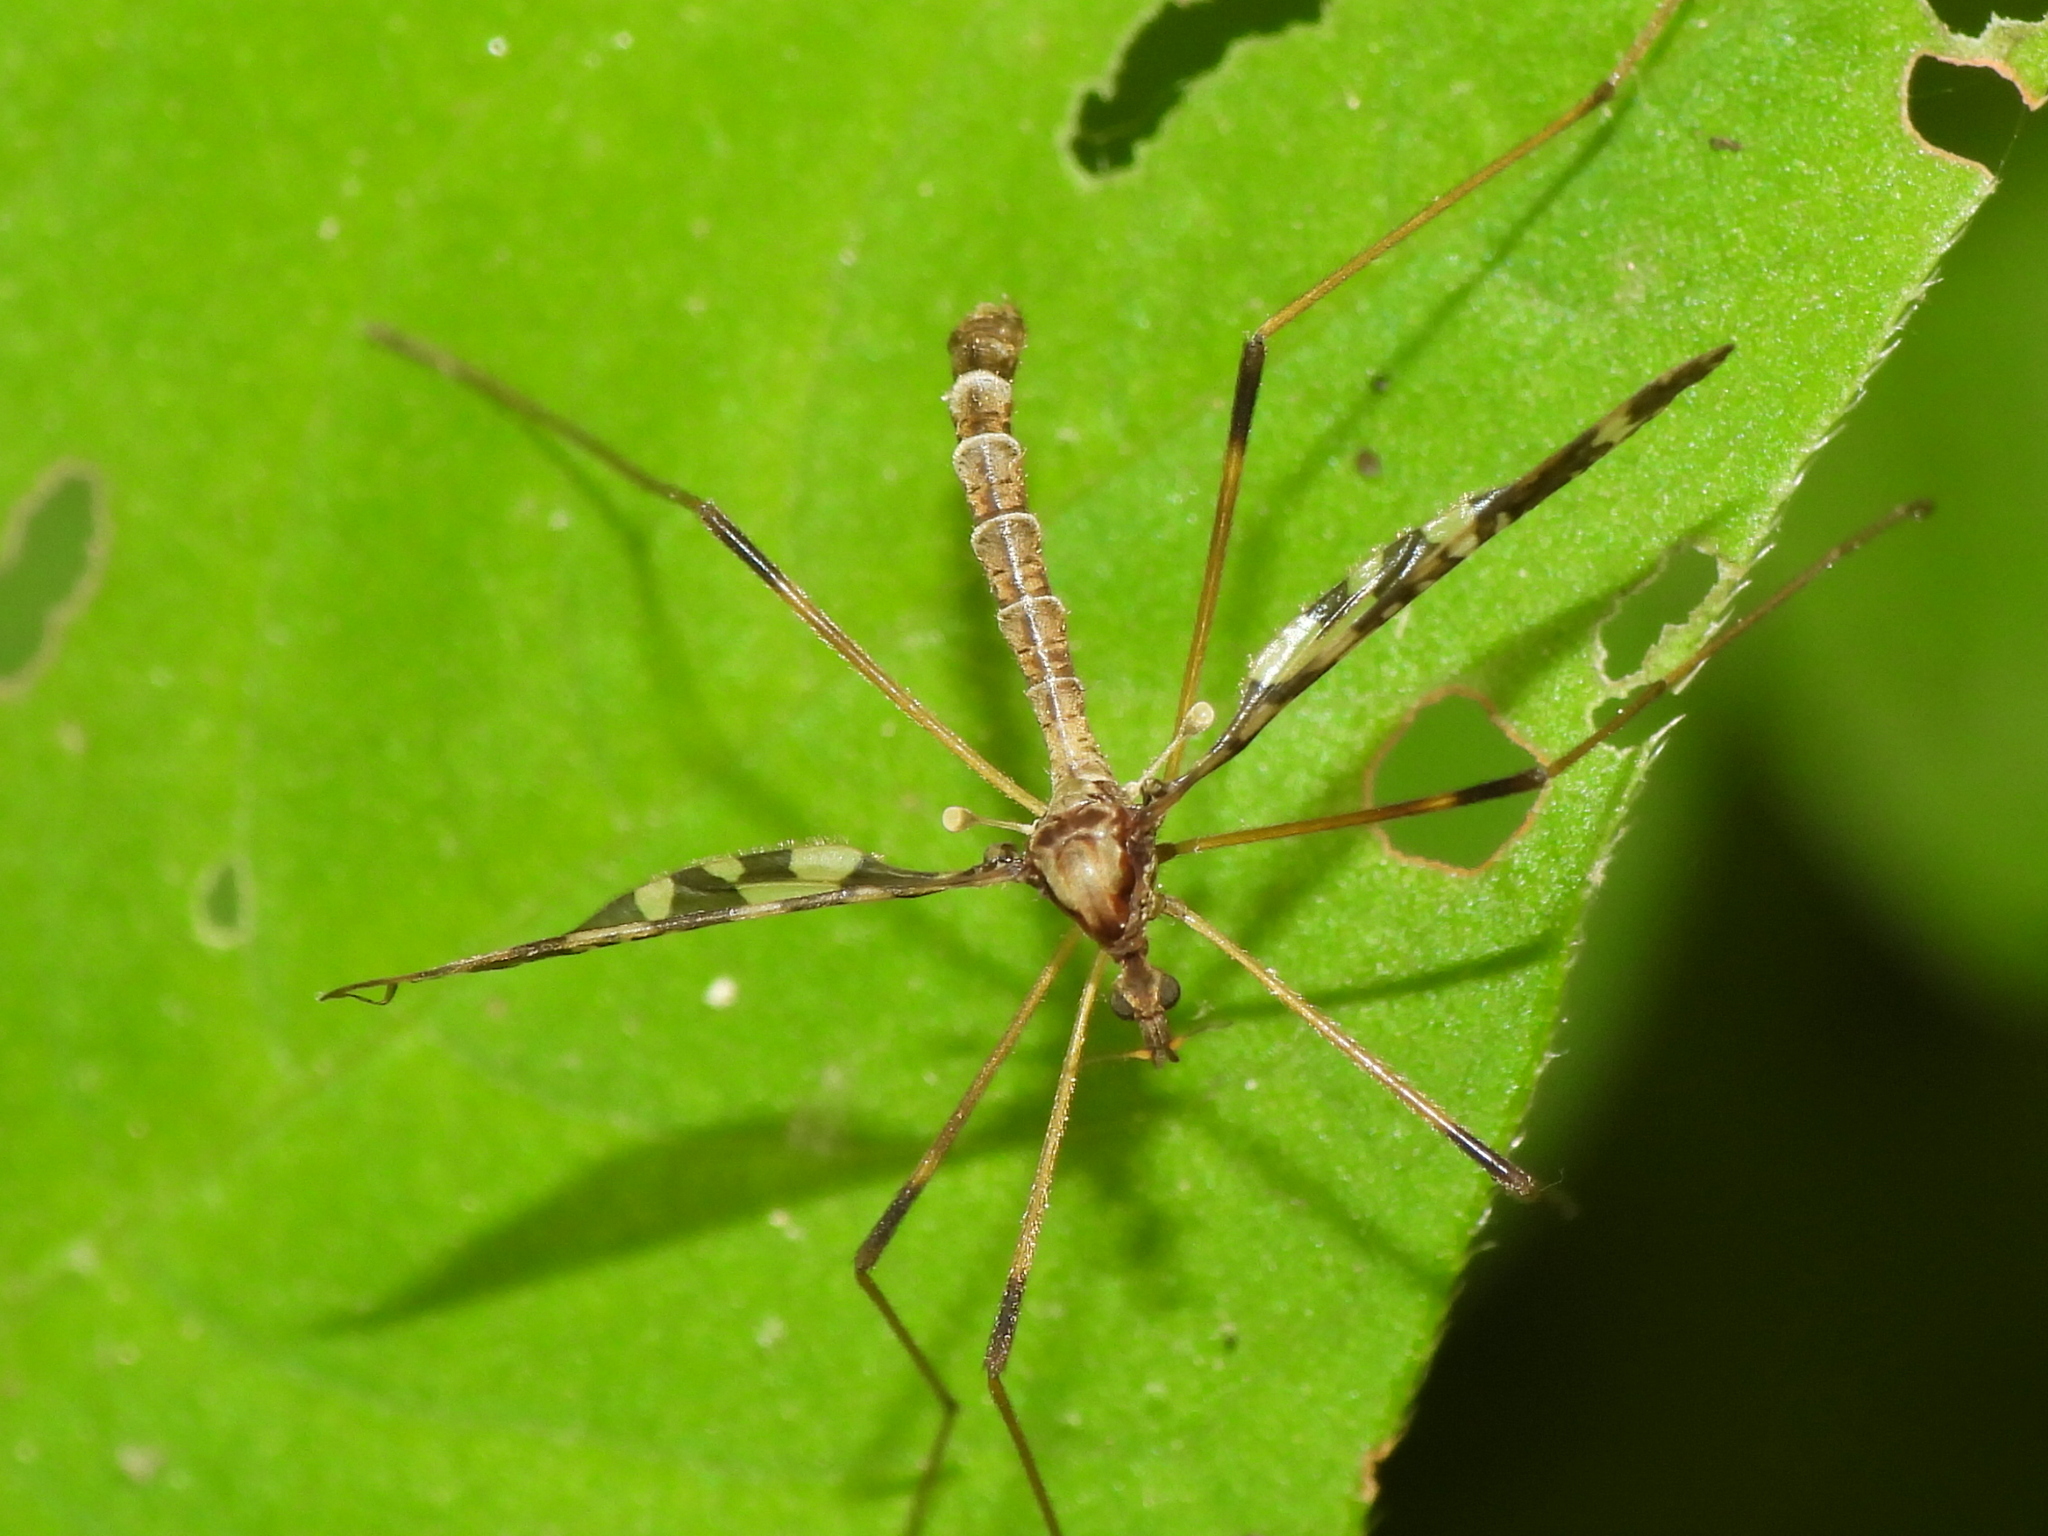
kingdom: Animalia
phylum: Arthropoda
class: Insecta
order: Diptera
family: Limoniidae
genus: Epiphragma
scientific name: Epiphragma fasciapenne
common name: Band-winged crane fly
